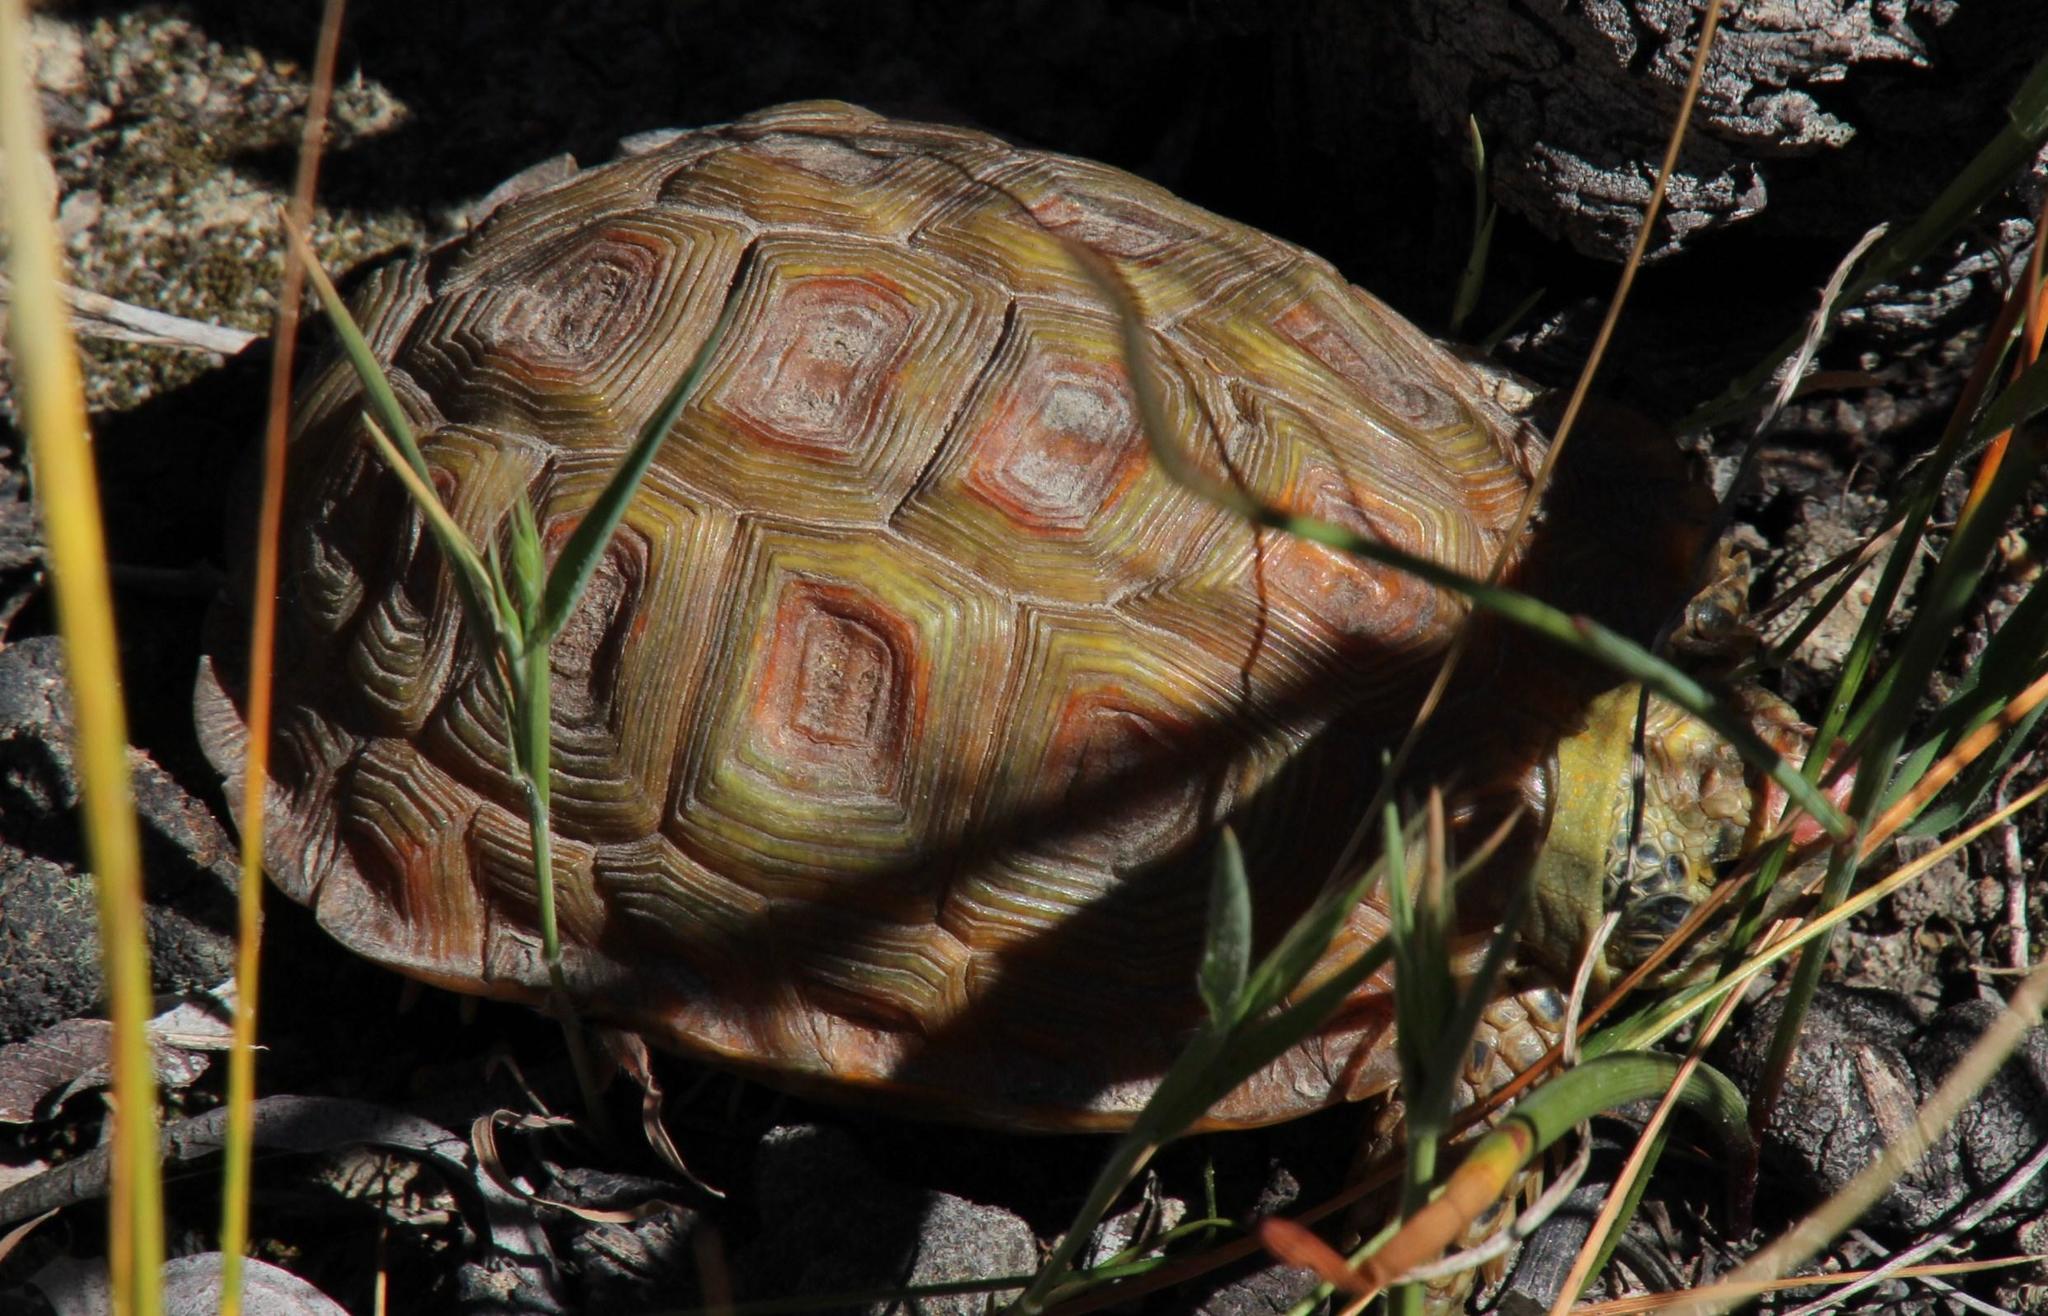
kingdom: Animalia
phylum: Chordata
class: Testudines
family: Testudinidae
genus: Homopus
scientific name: Homopus areolatus
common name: Parrot-beaked tortoise
